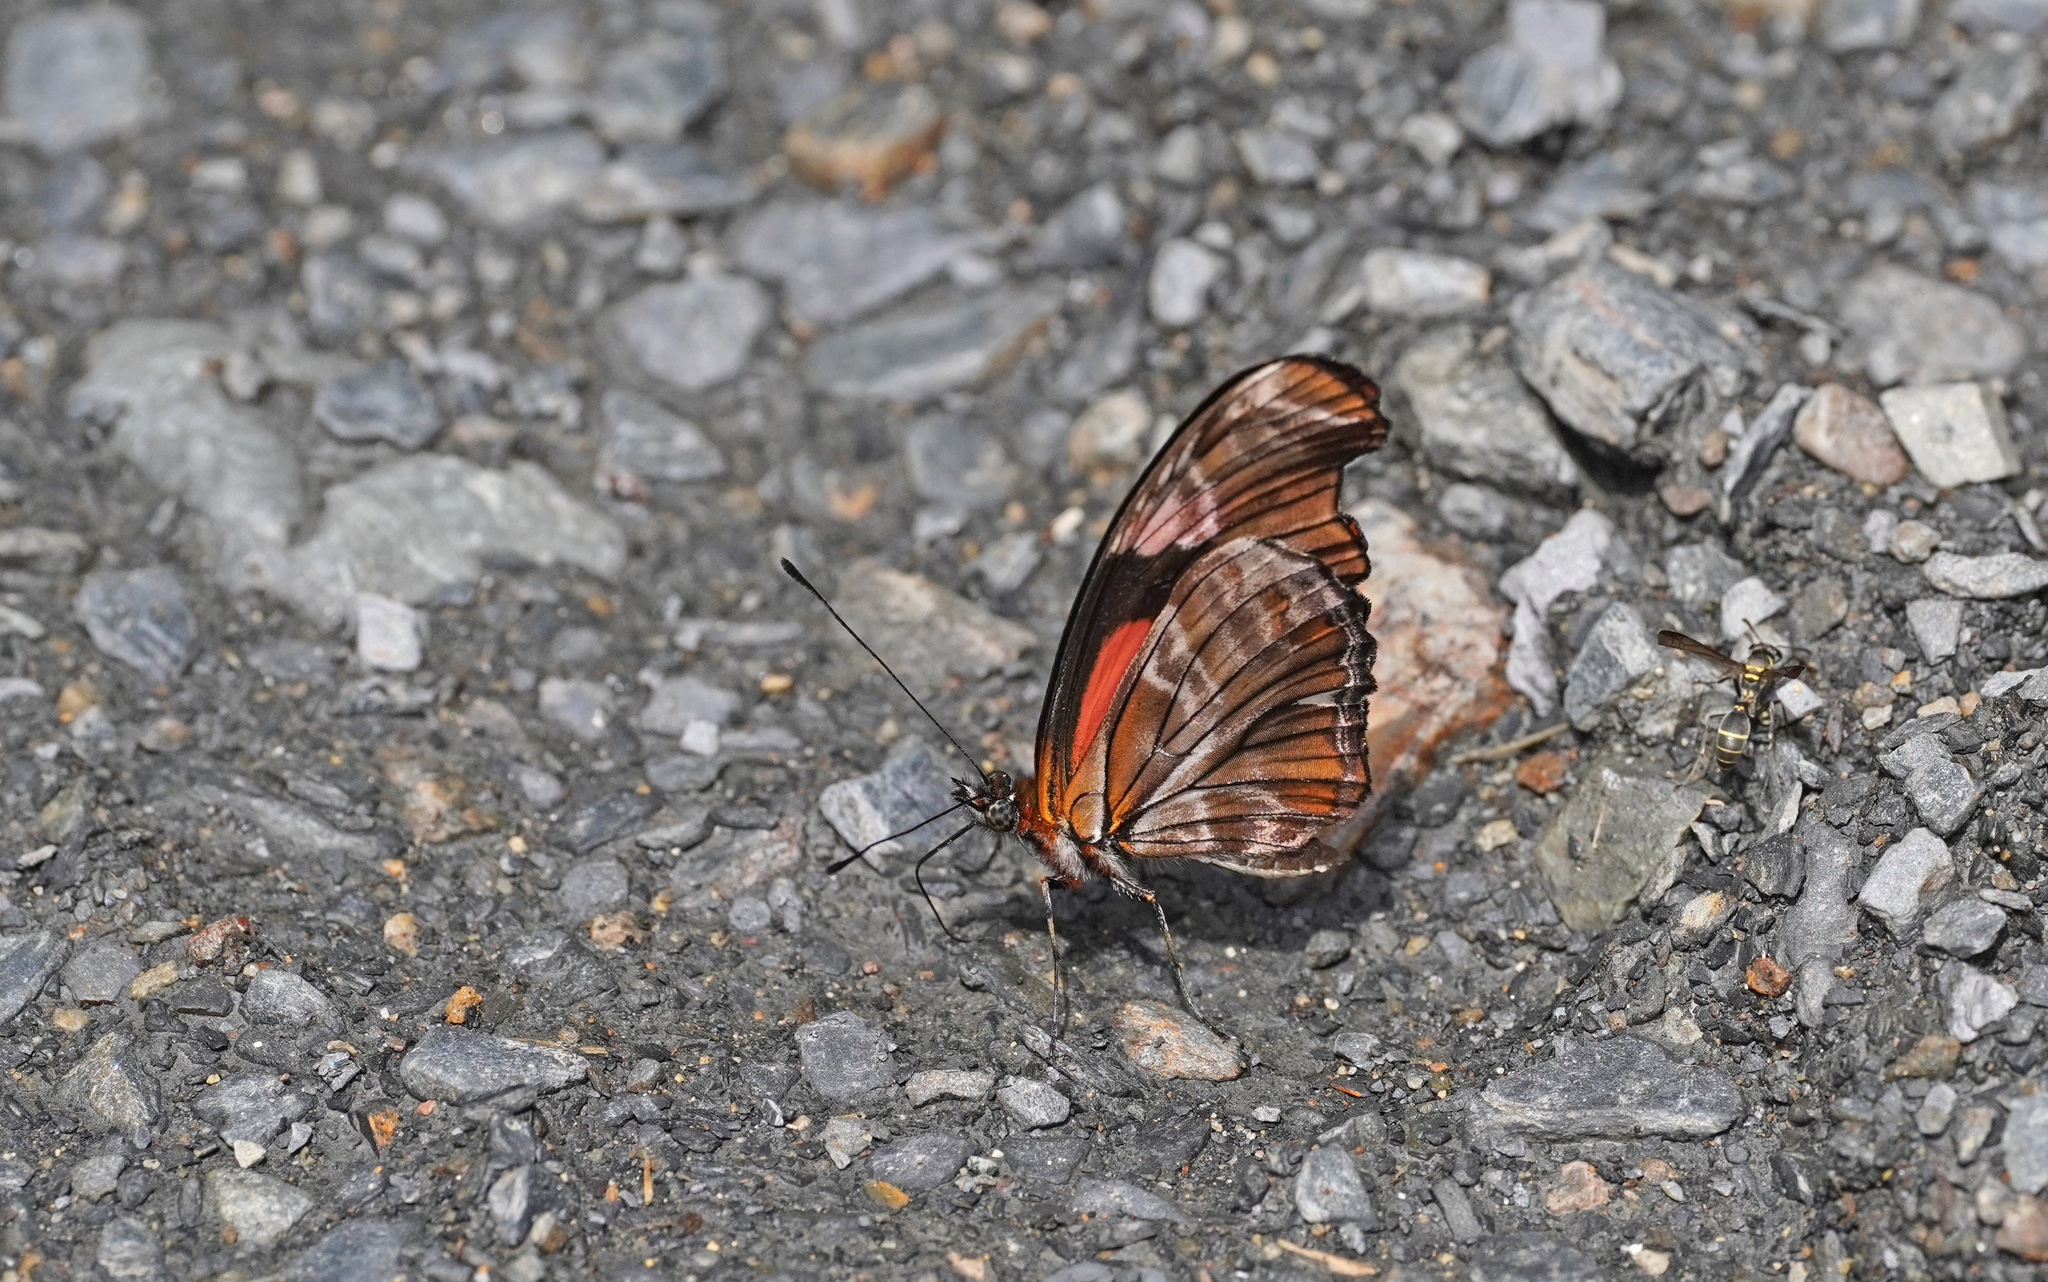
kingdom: Animalia
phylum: Arthropoda
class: Insecta
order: Lepidoptera
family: Nymphalidae
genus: Podotricha
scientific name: Podotricha telesiphe
